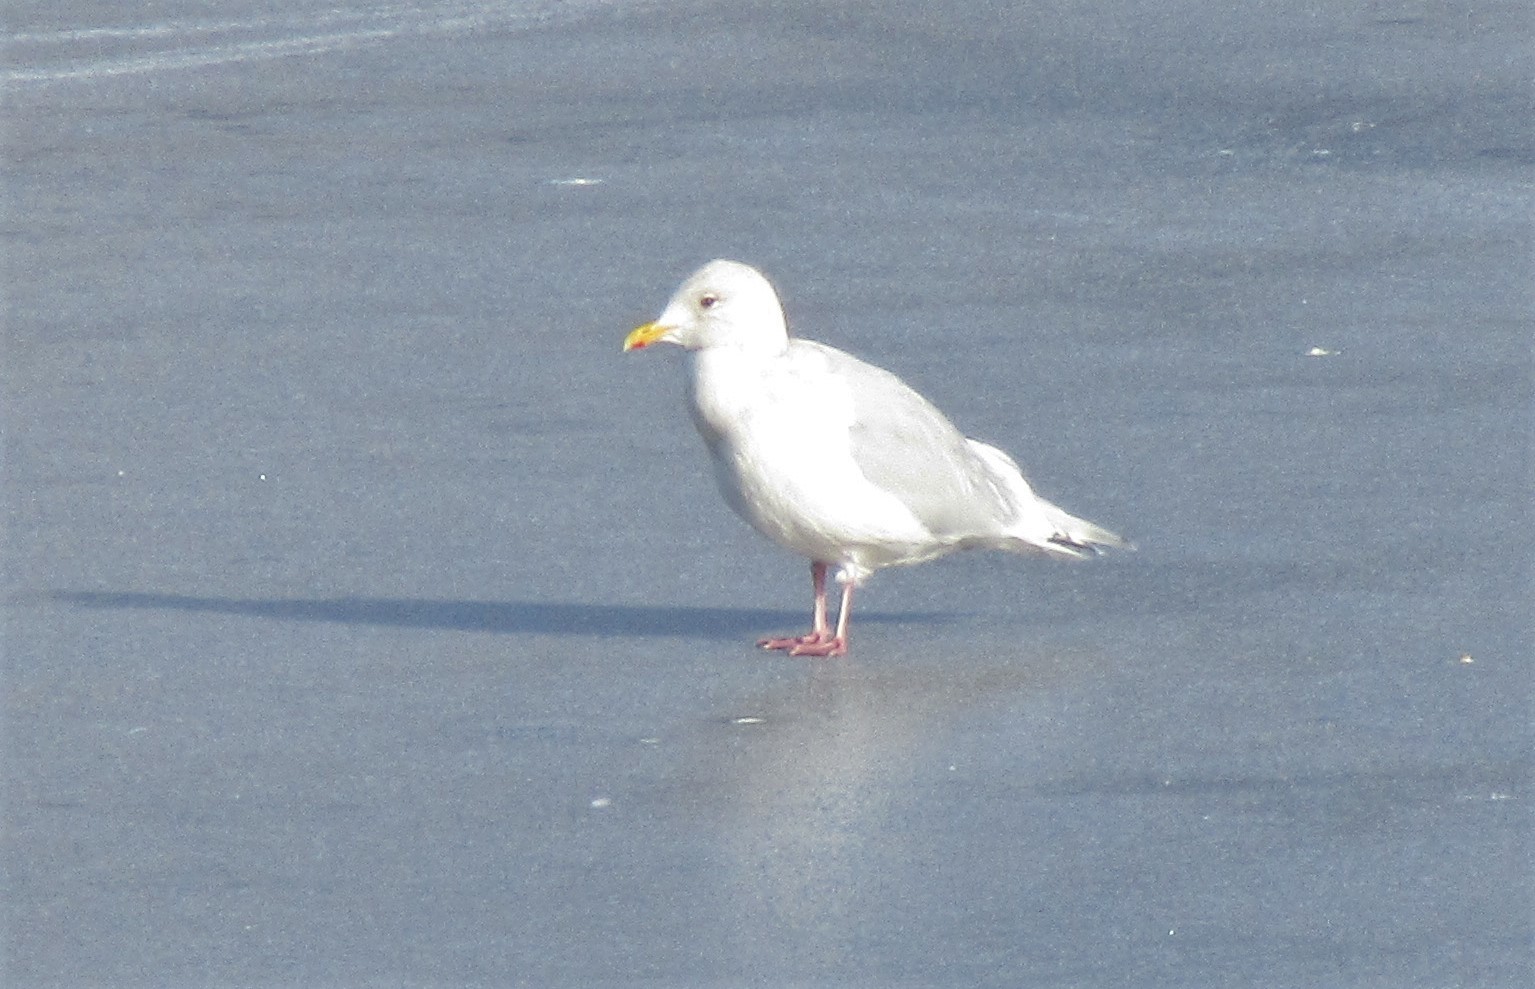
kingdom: Animalia
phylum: Chordata
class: Aves
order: Charadriiformes
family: Laridae
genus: Larus
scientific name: Larus glaucoides
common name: Iceland gull
